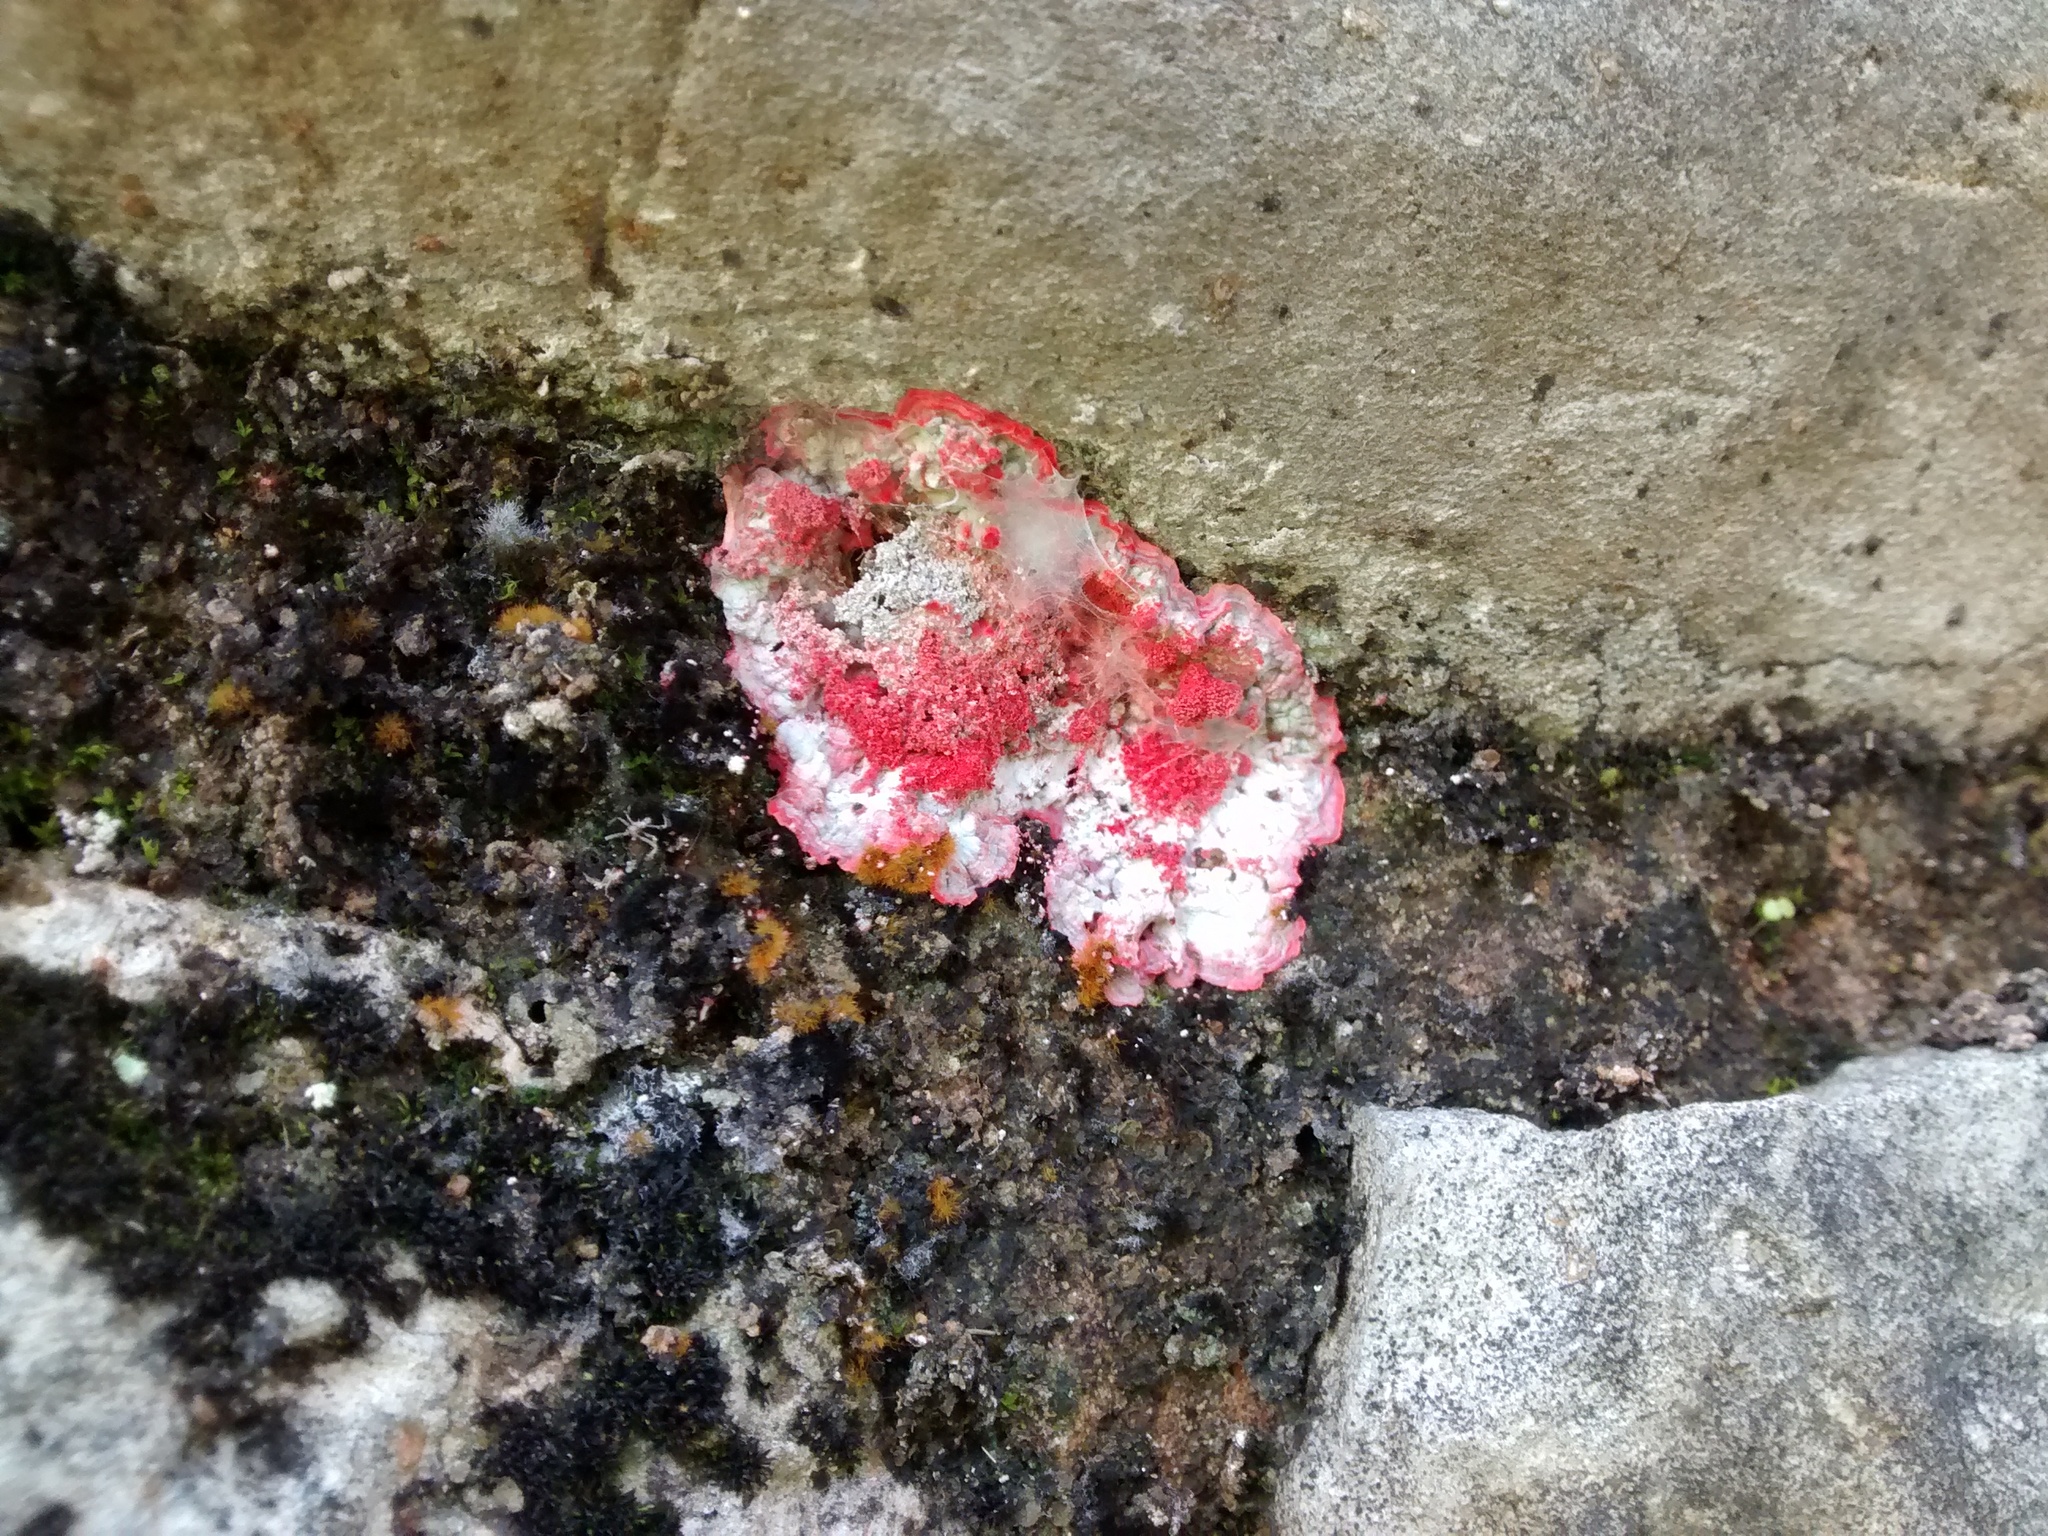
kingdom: Fungi
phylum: Ascomycota
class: Arthoniomycetes
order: Arthoniales
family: Arthoniaceae
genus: Herpothallon
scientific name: Herpothallon rubrocinctum
